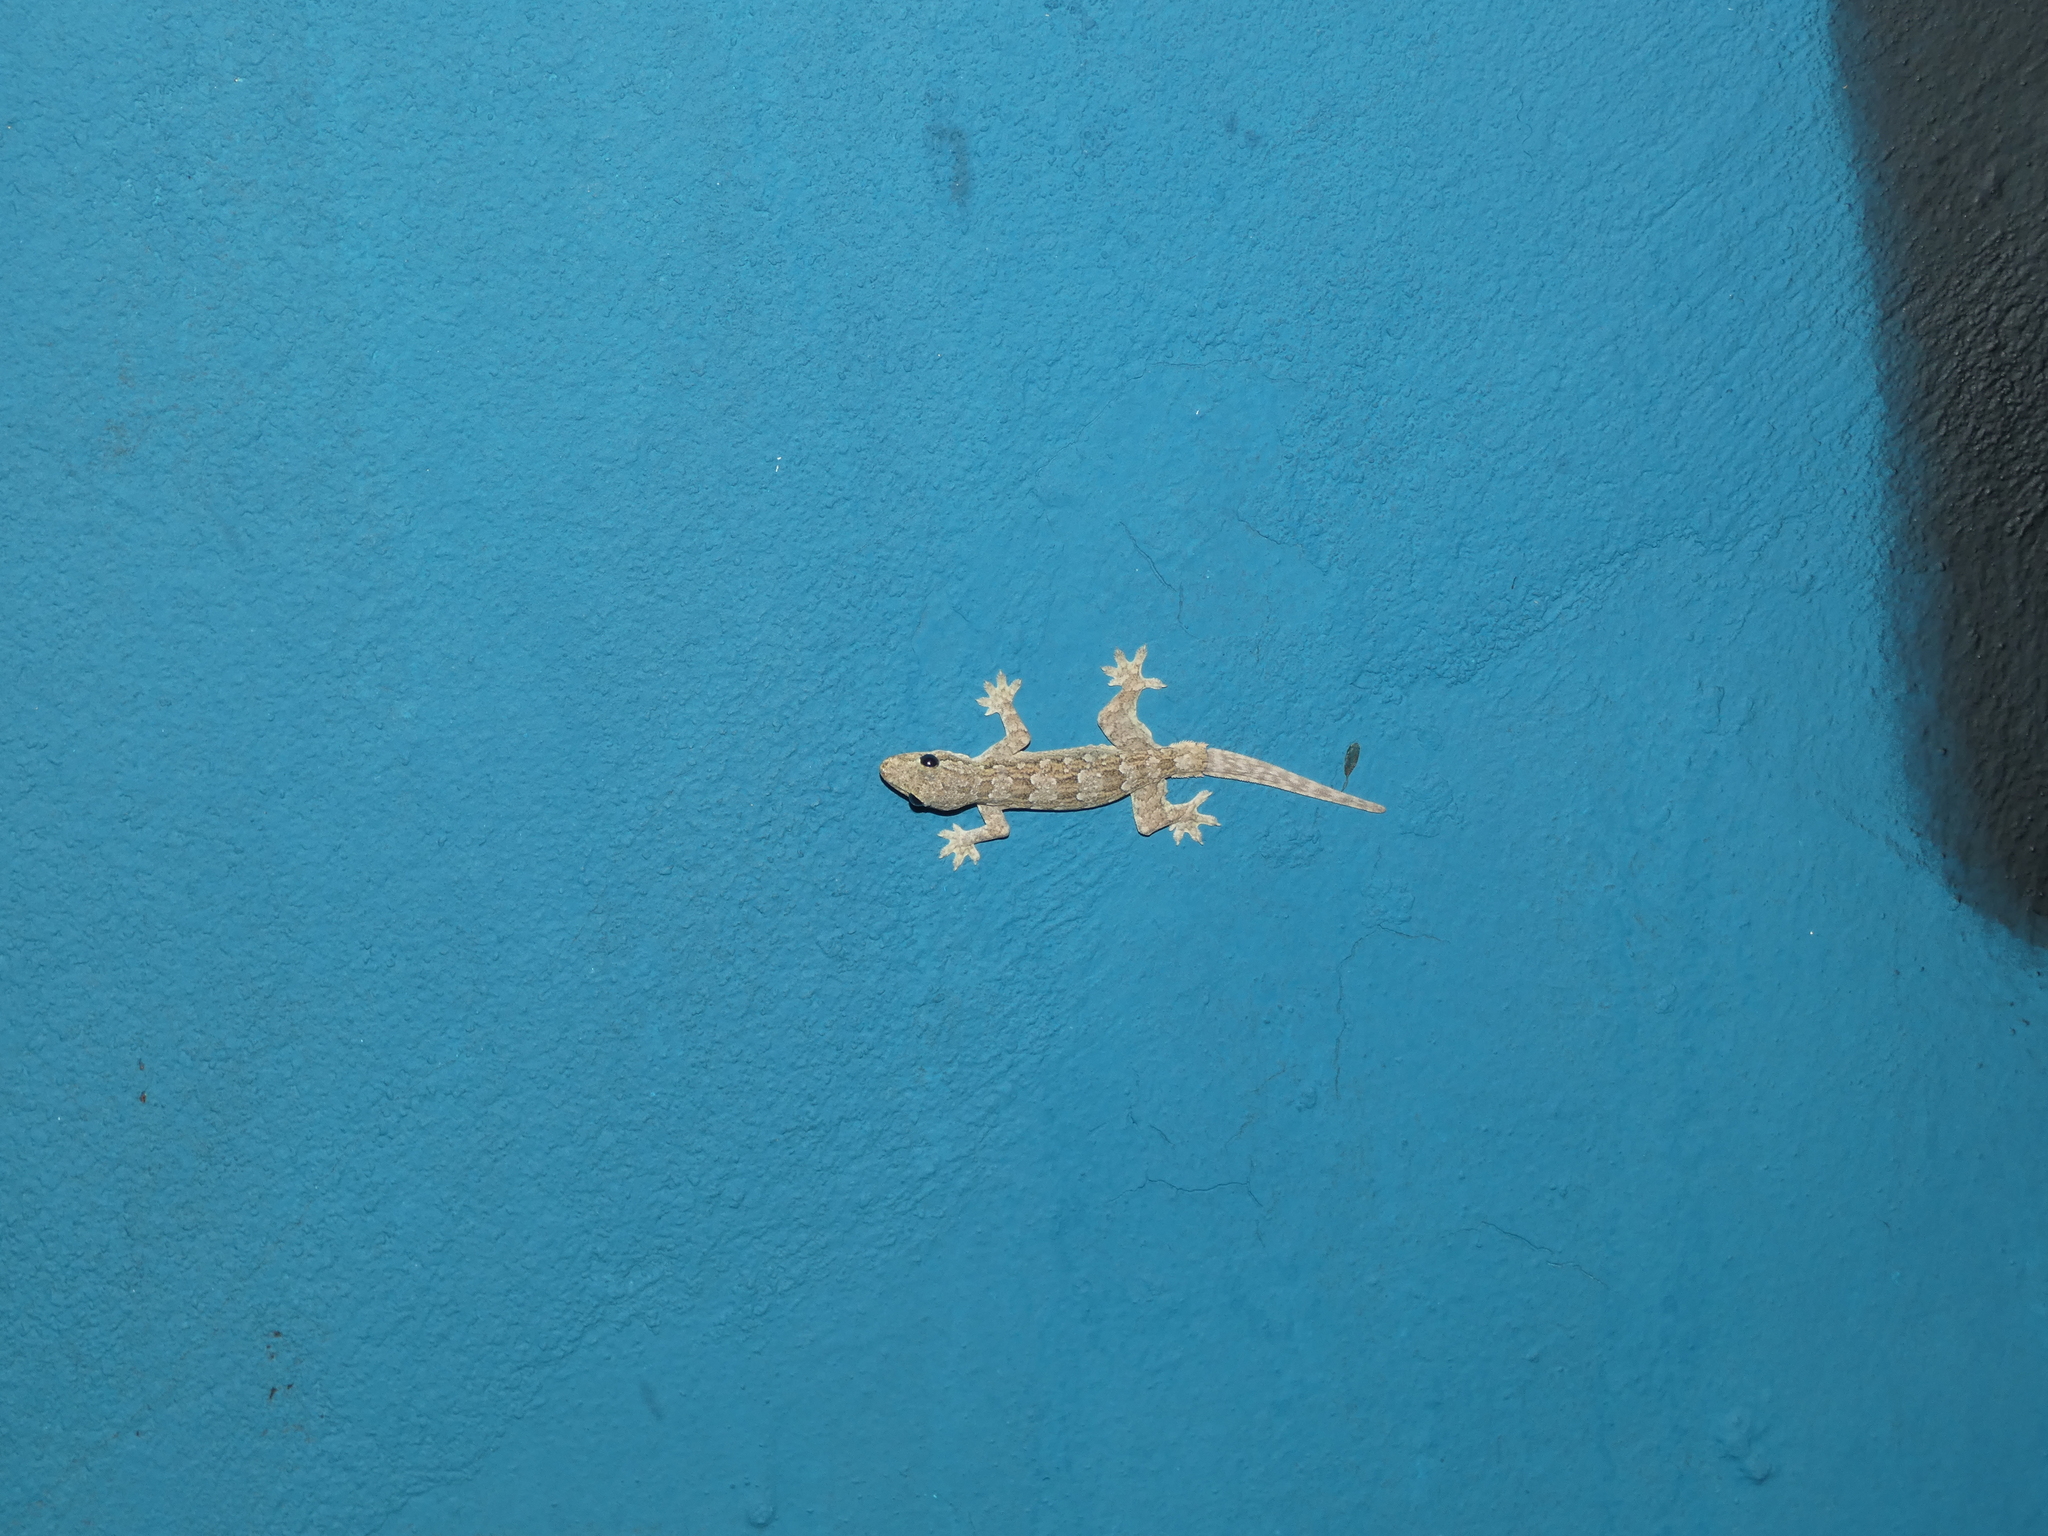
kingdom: Animalia
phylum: Chordata
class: Squamata
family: Gekkonidae
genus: Hemidactylus
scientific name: Hemidactylus platyurus
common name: Flat-tailed house gecko
